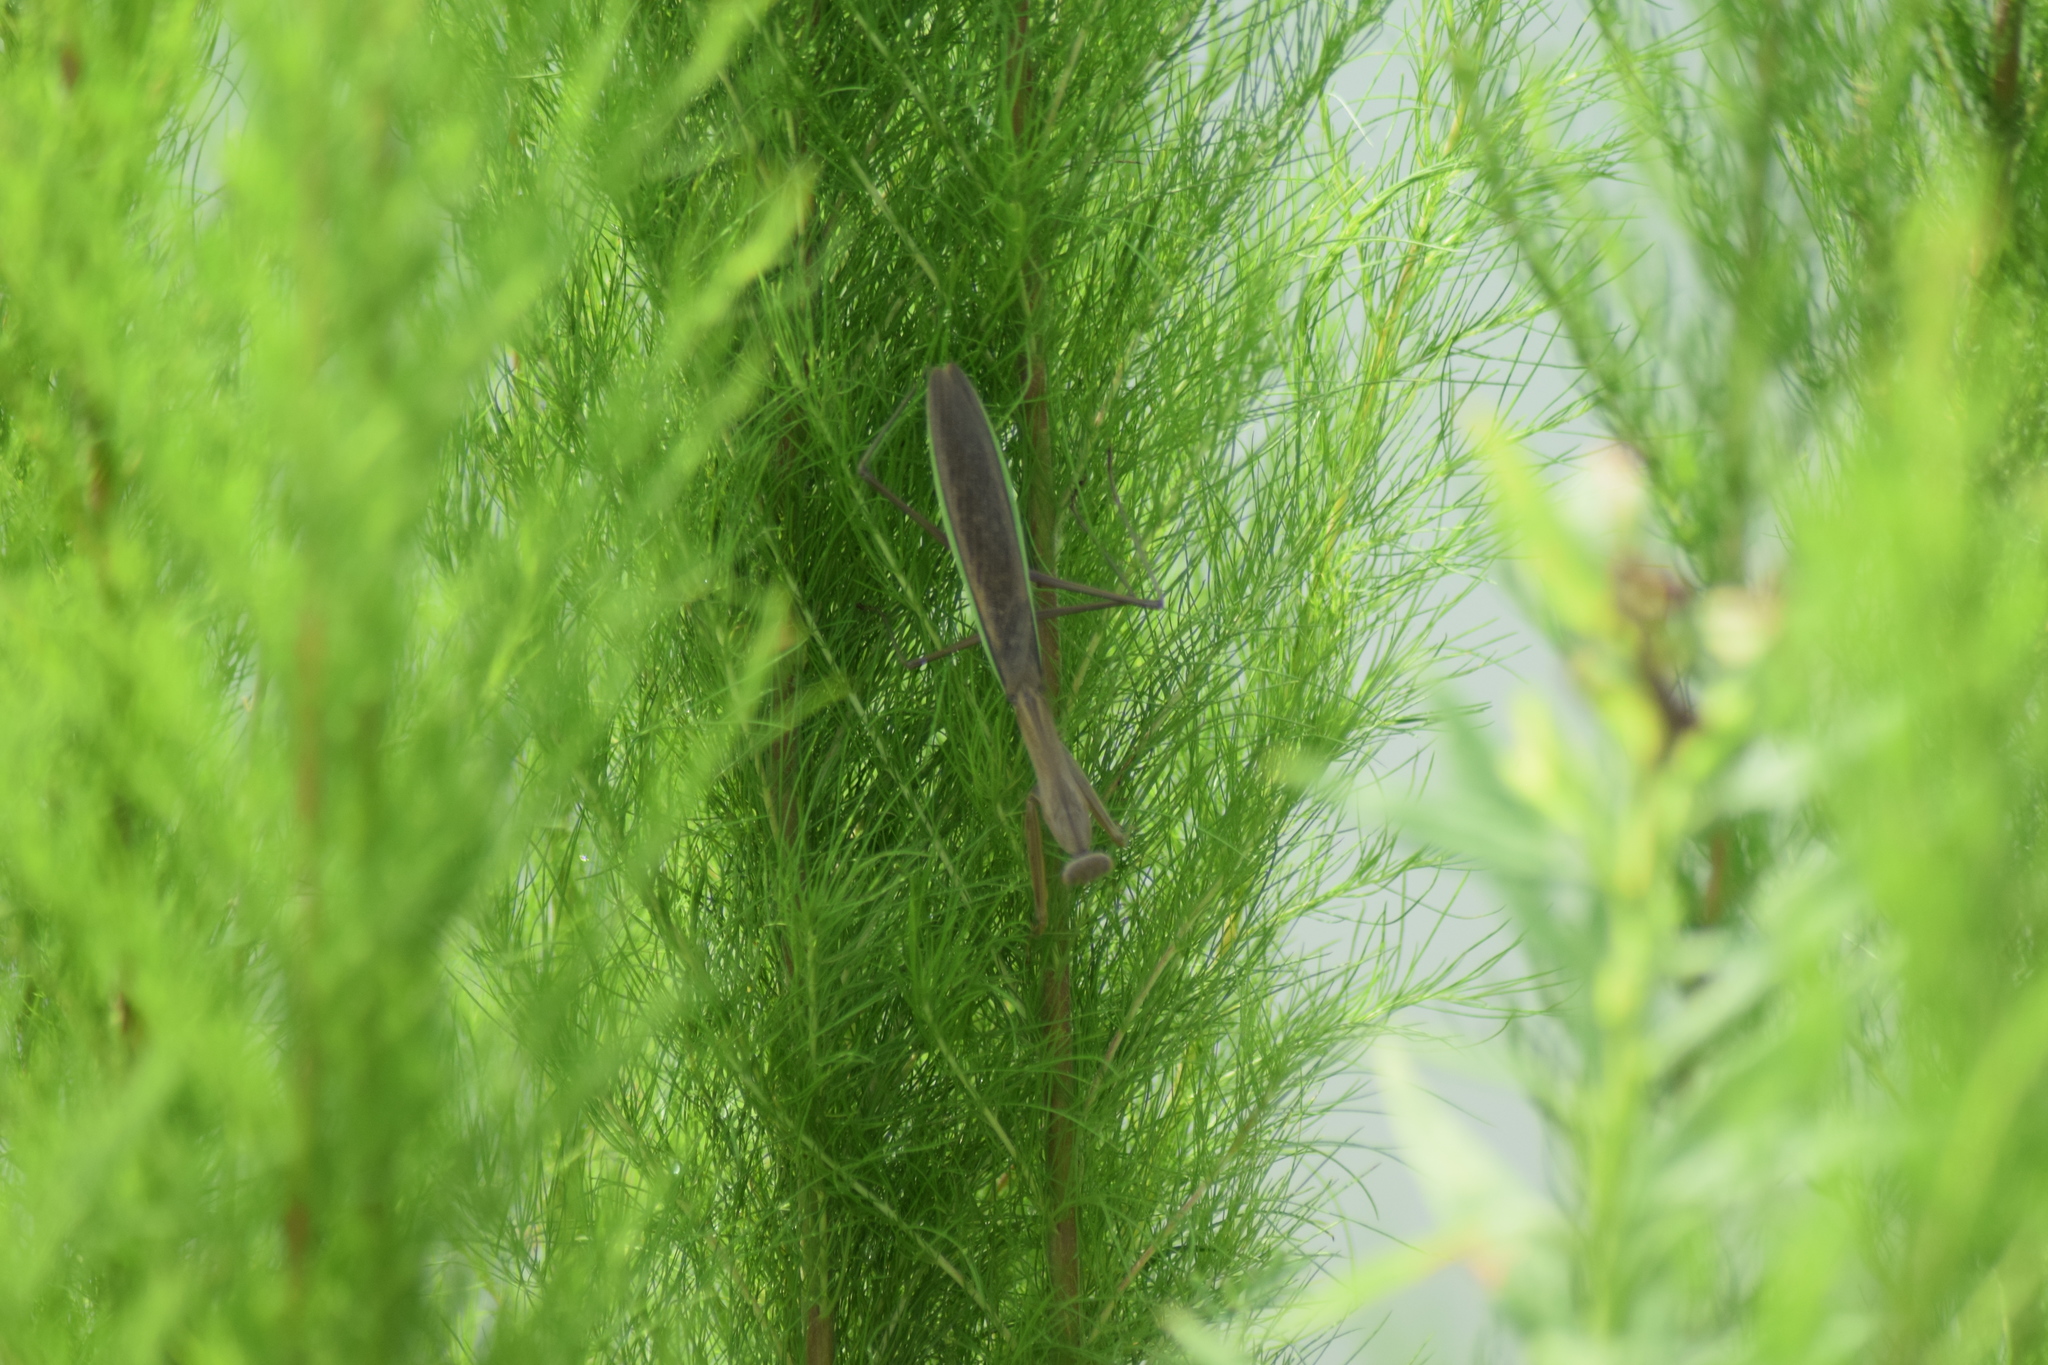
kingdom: Animalia
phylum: Arthropoda
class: Insecta
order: Mantodea
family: Mantidae
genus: Tenodera
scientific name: Tenodera sinensis
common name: Chinese mantis
